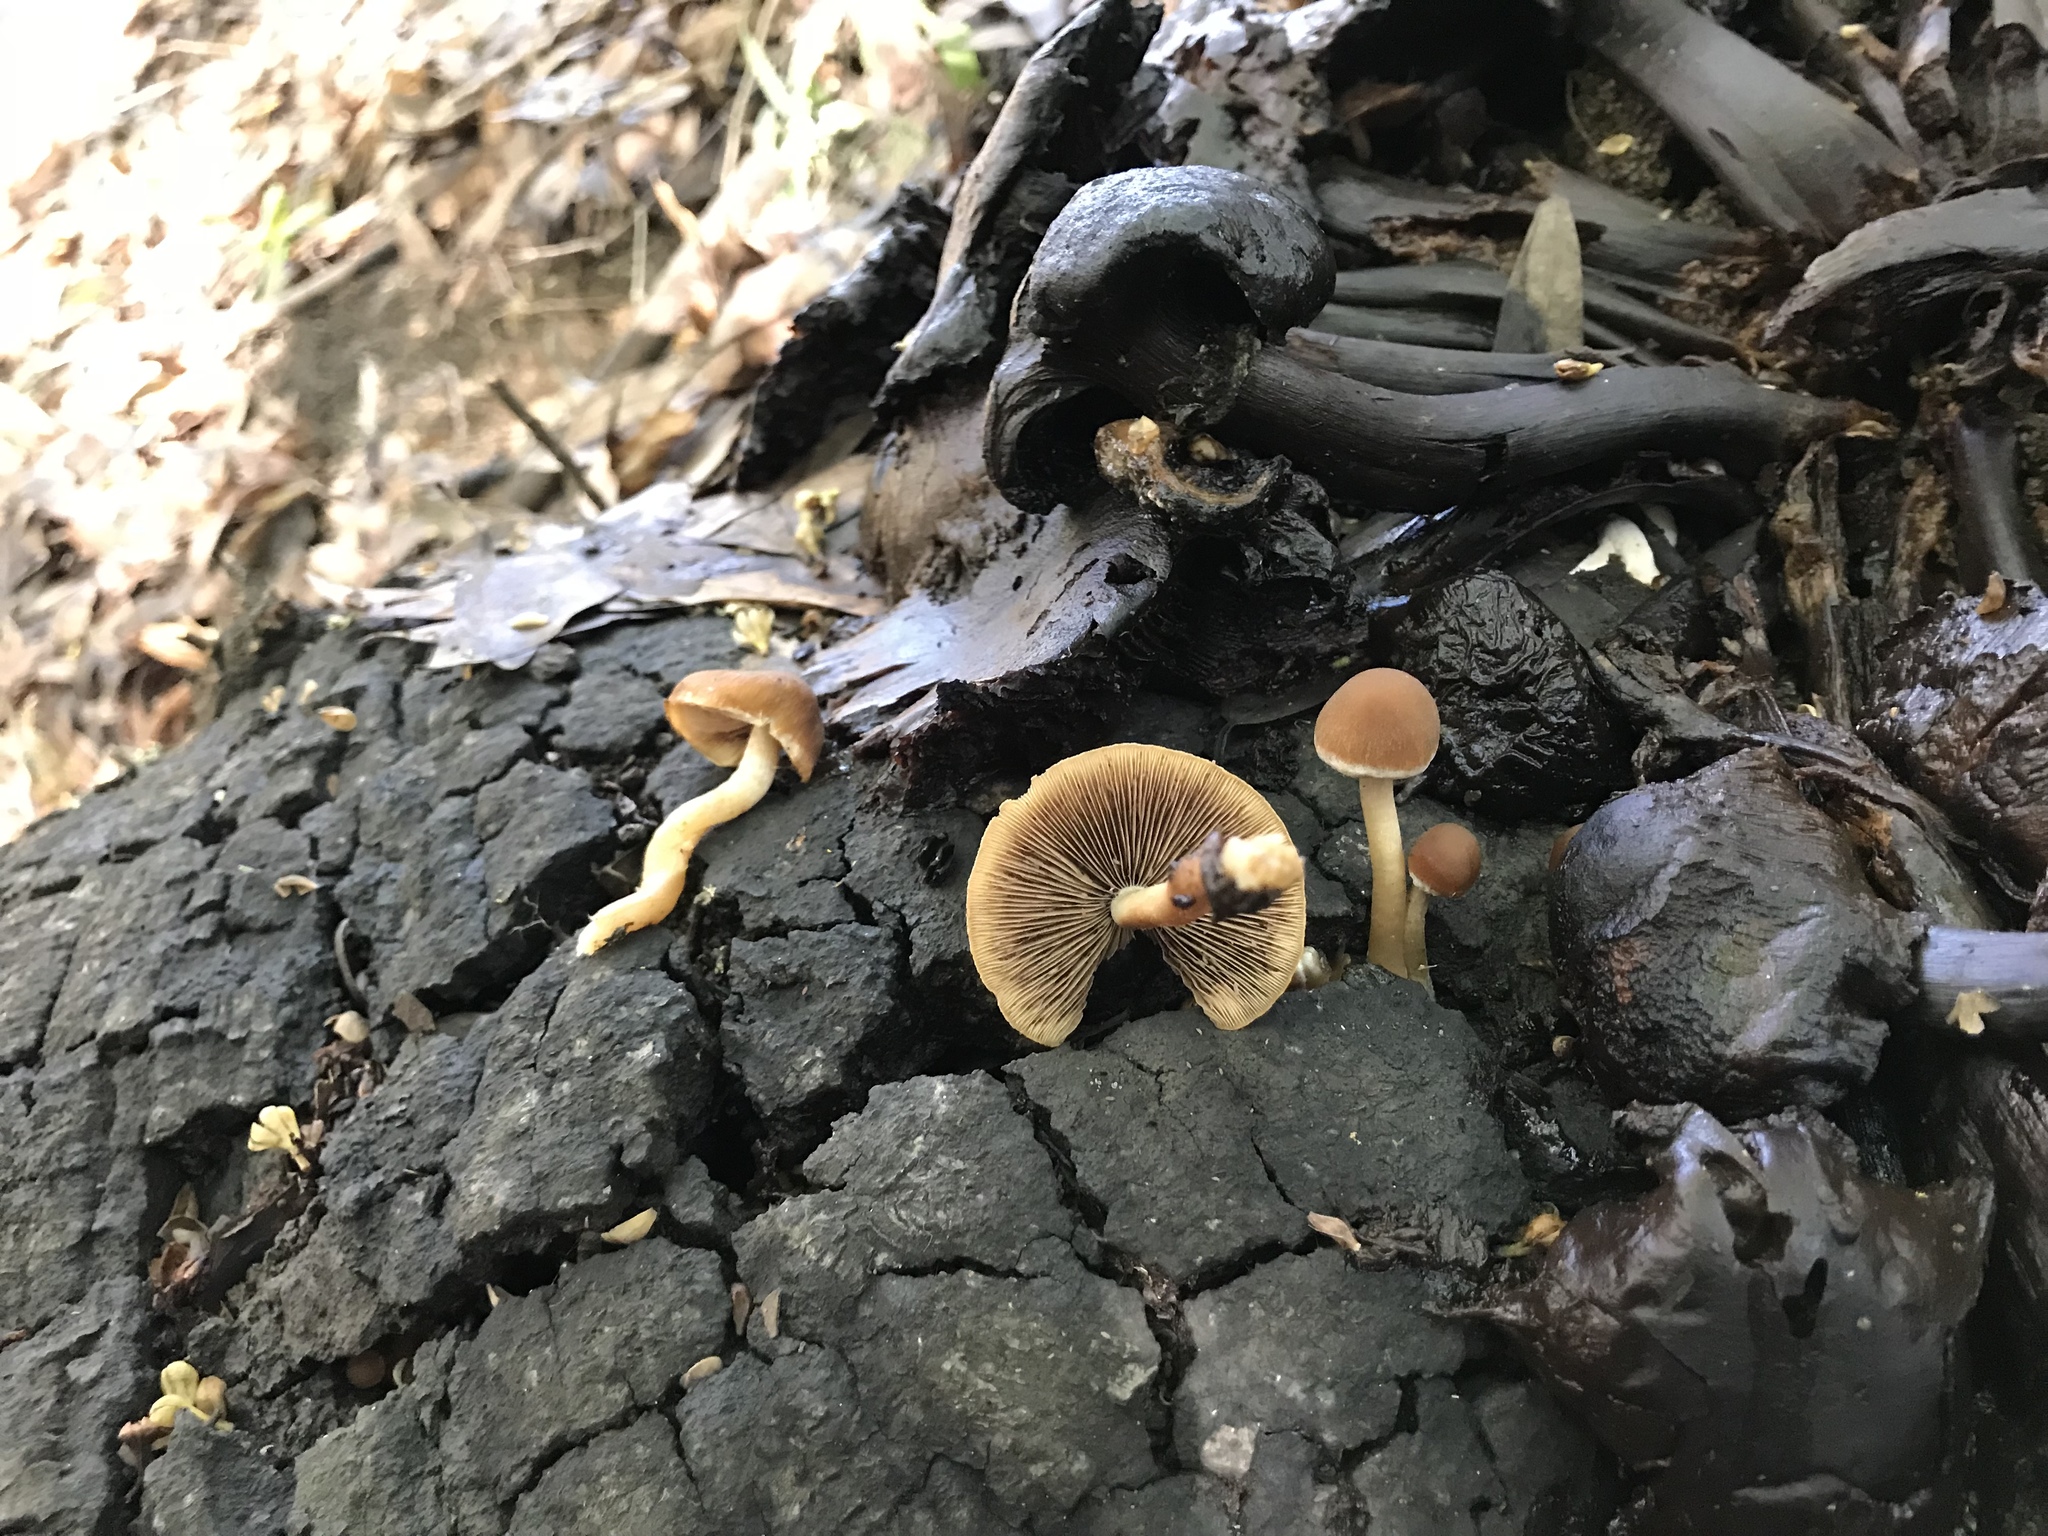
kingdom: Fungi
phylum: Basidiomycota
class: Agaricomycetes
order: Agaricales
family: Psathyrellaceae
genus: Psathyrella
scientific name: Psathyrella piluliformis
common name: Common stump brittlestem
